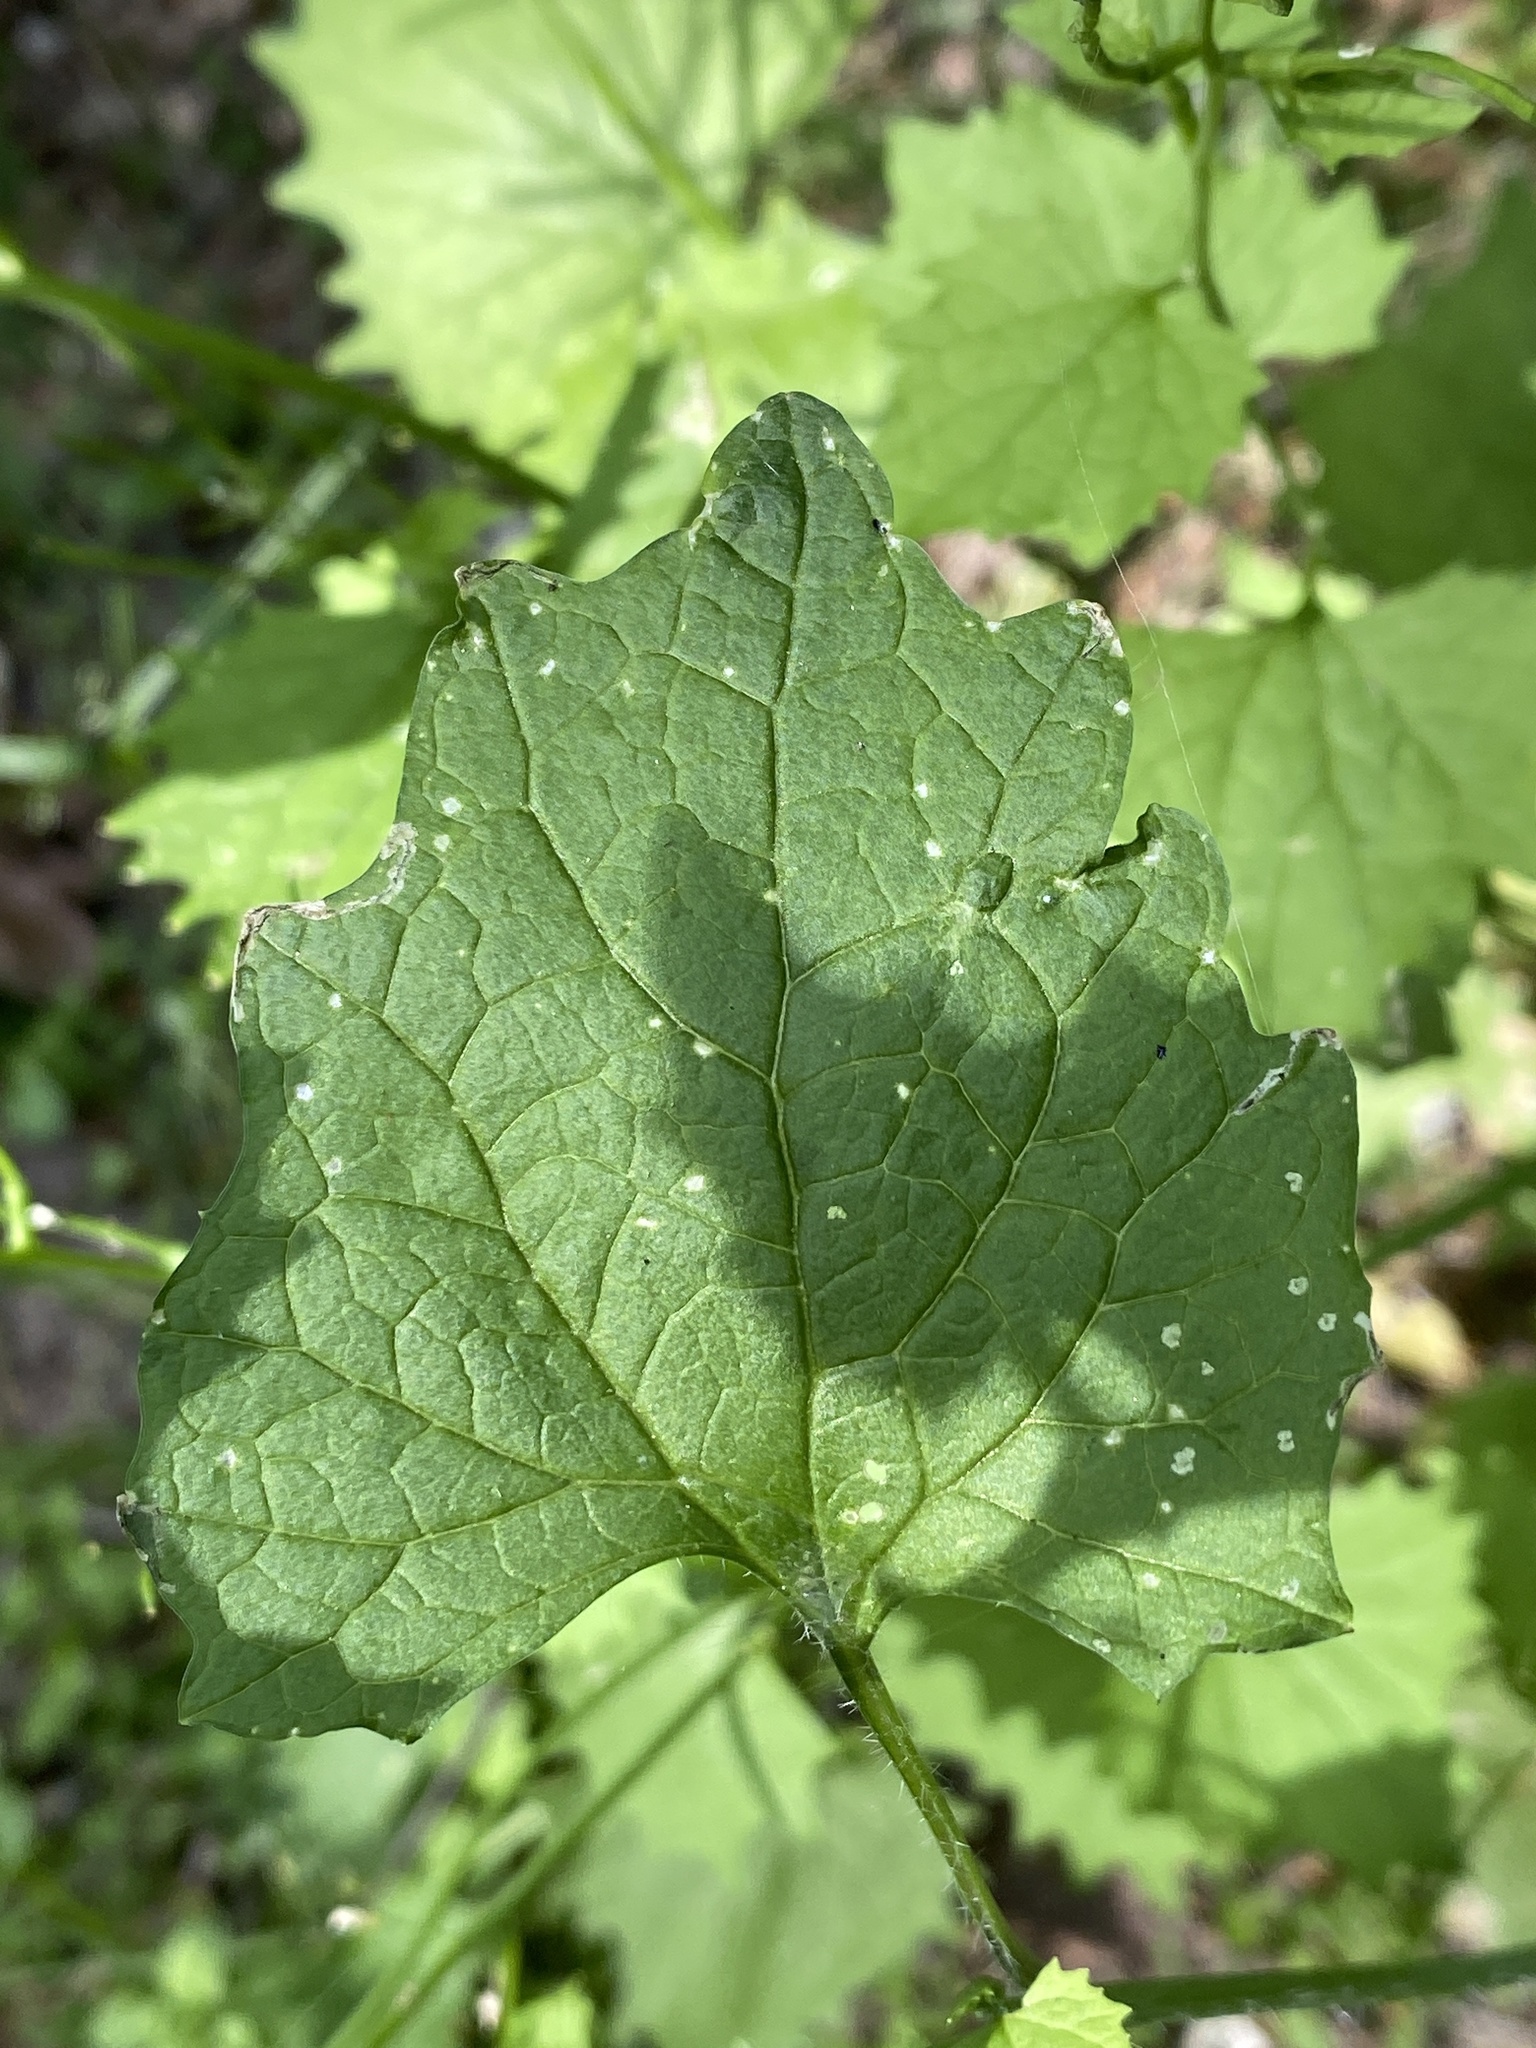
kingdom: Plantae
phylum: Tracheophyta
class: Magnoliopsida
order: Brassicales
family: Brassicaceae
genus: Alliaria
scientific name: Alliaria petiolata
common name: Garlic mustard
